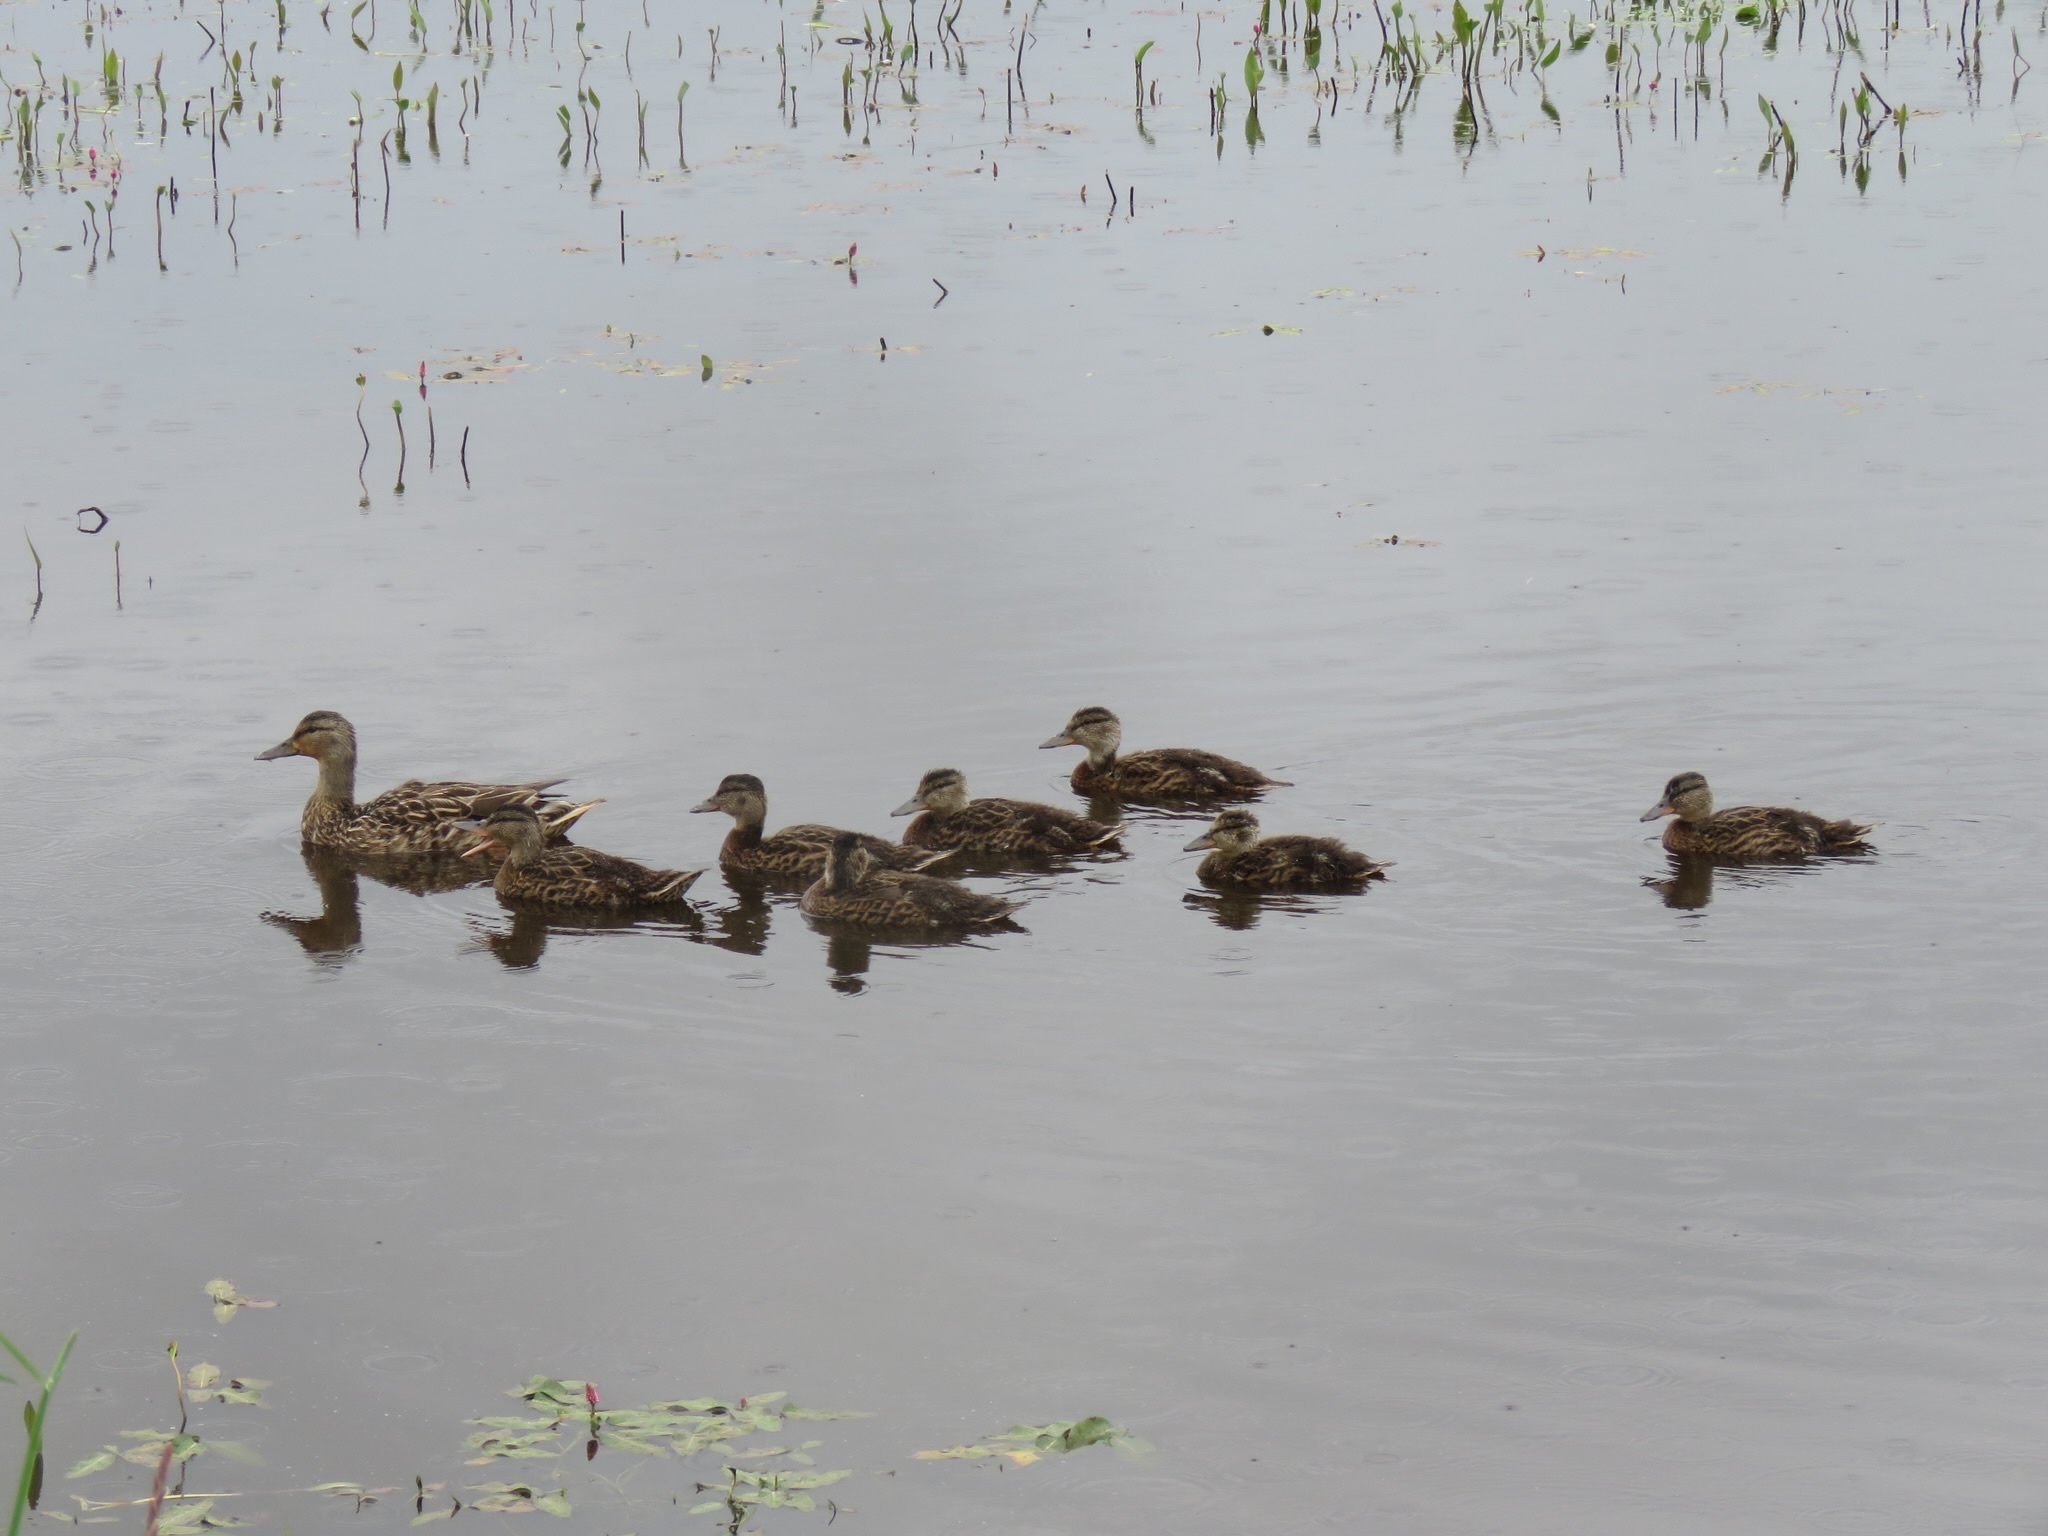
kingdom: Animalia
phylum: Chordata
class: Aves
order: Anseriformes
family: Anatidae
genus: Anas
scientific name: Anas platyrhynchos
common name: Mallard
